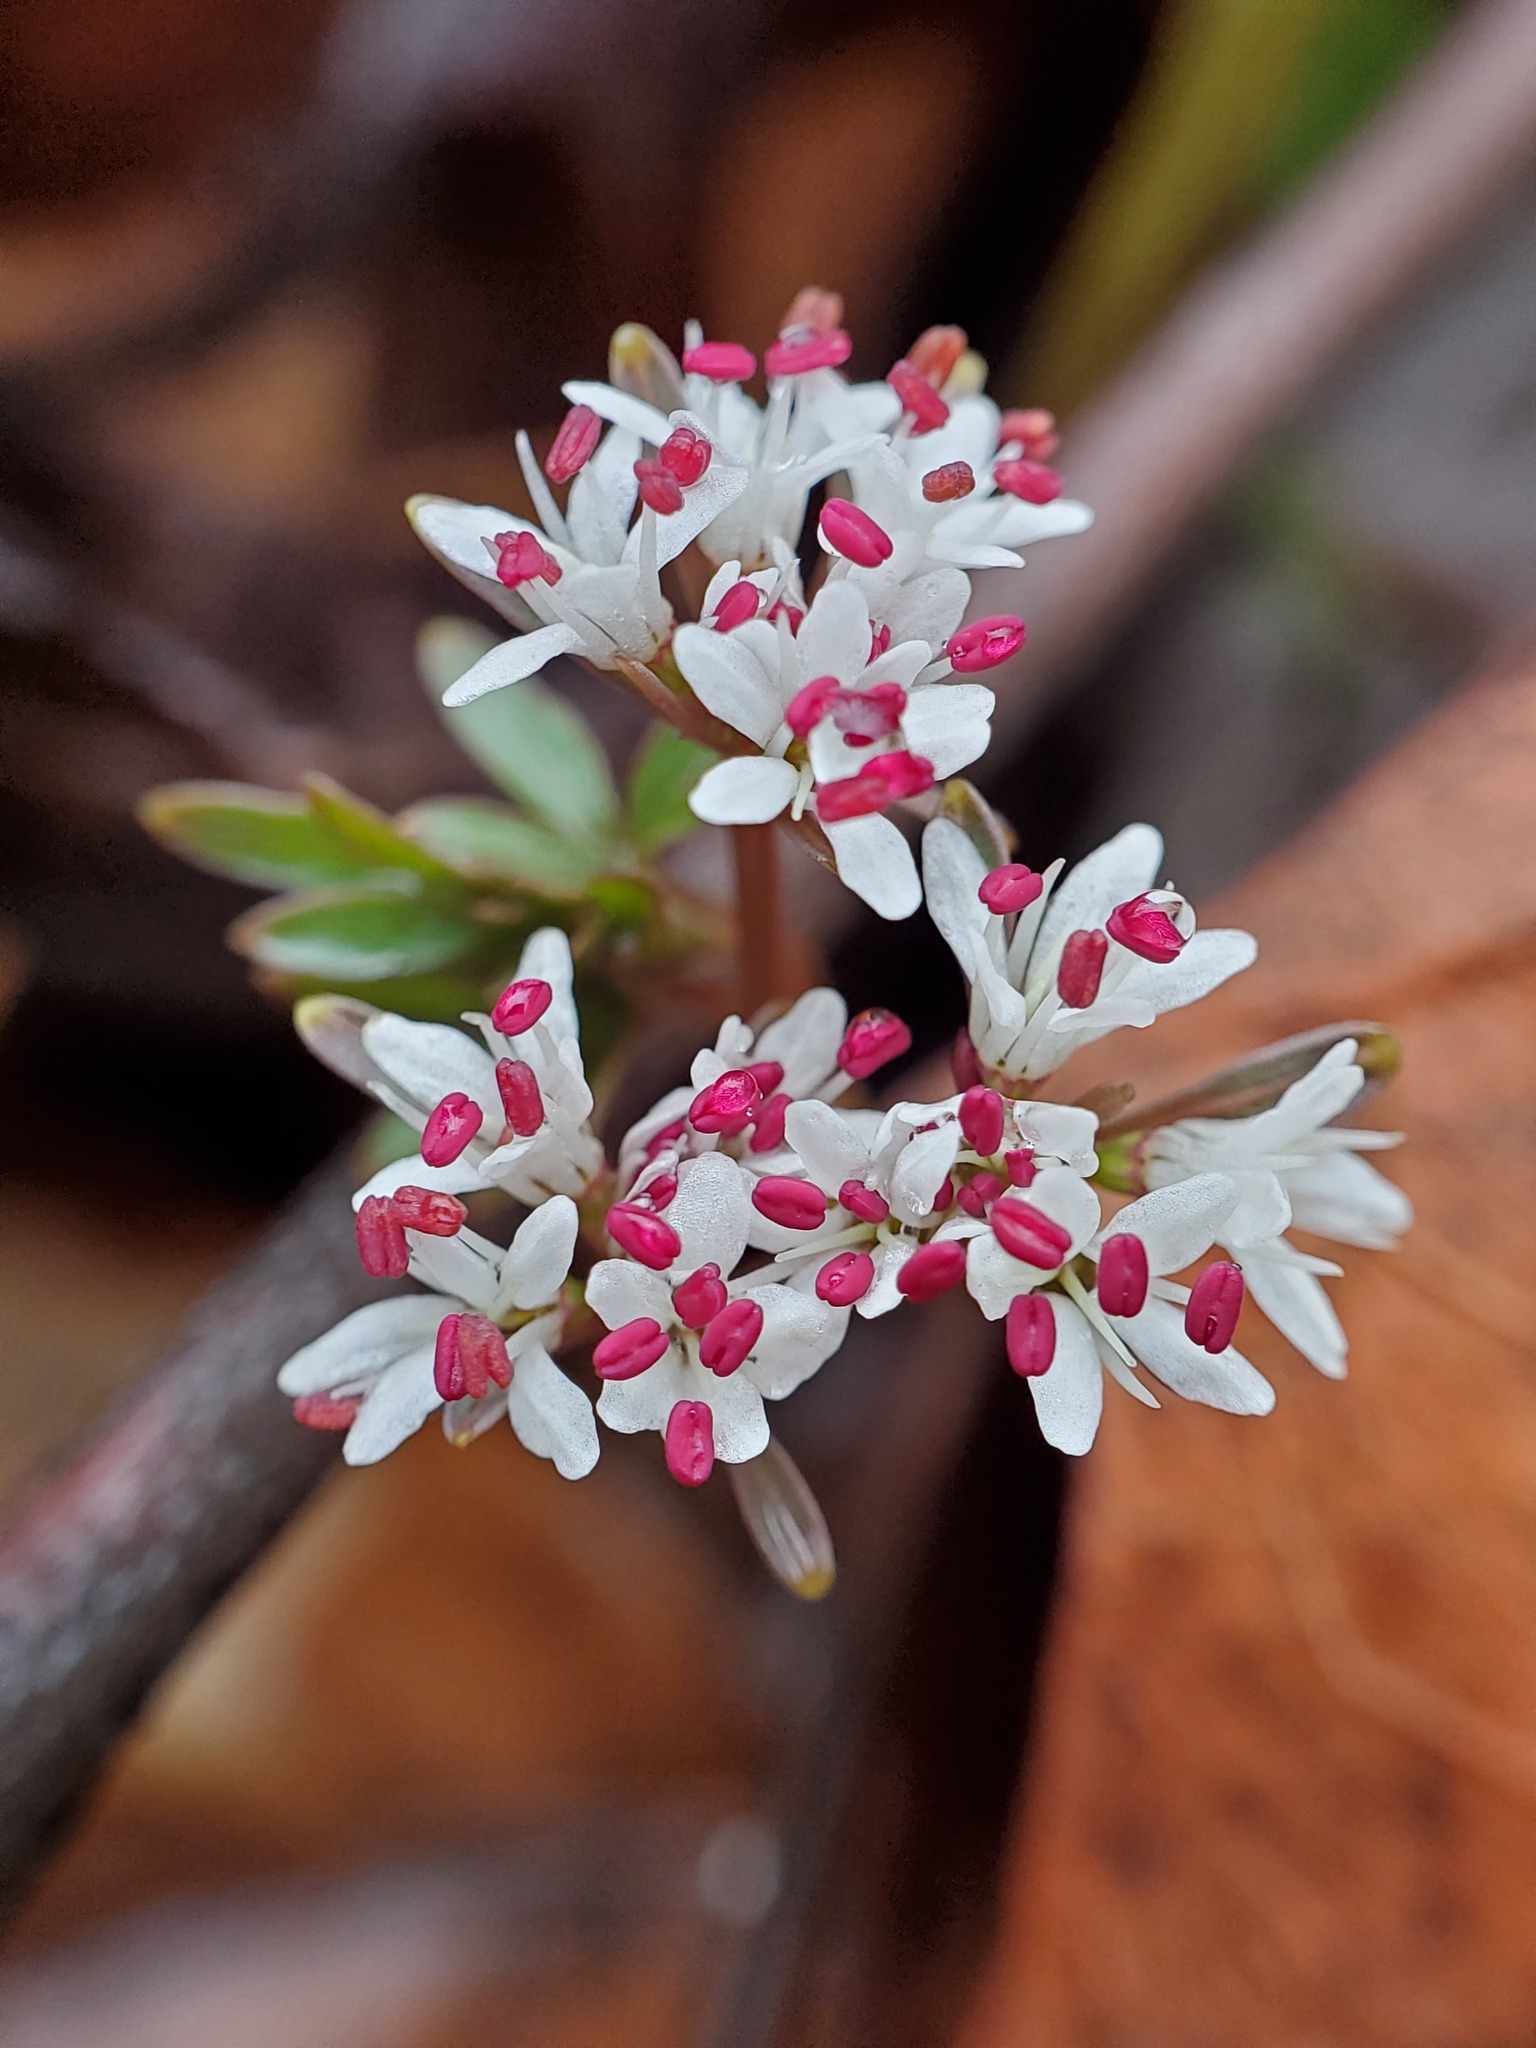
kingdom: Plantae
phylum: Tracheophyta
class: Magnoliopsida
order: Apiales
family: Apiaceae
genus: Erigenia
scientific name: Erigenia bulbosa
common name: Pepper-and-salt
